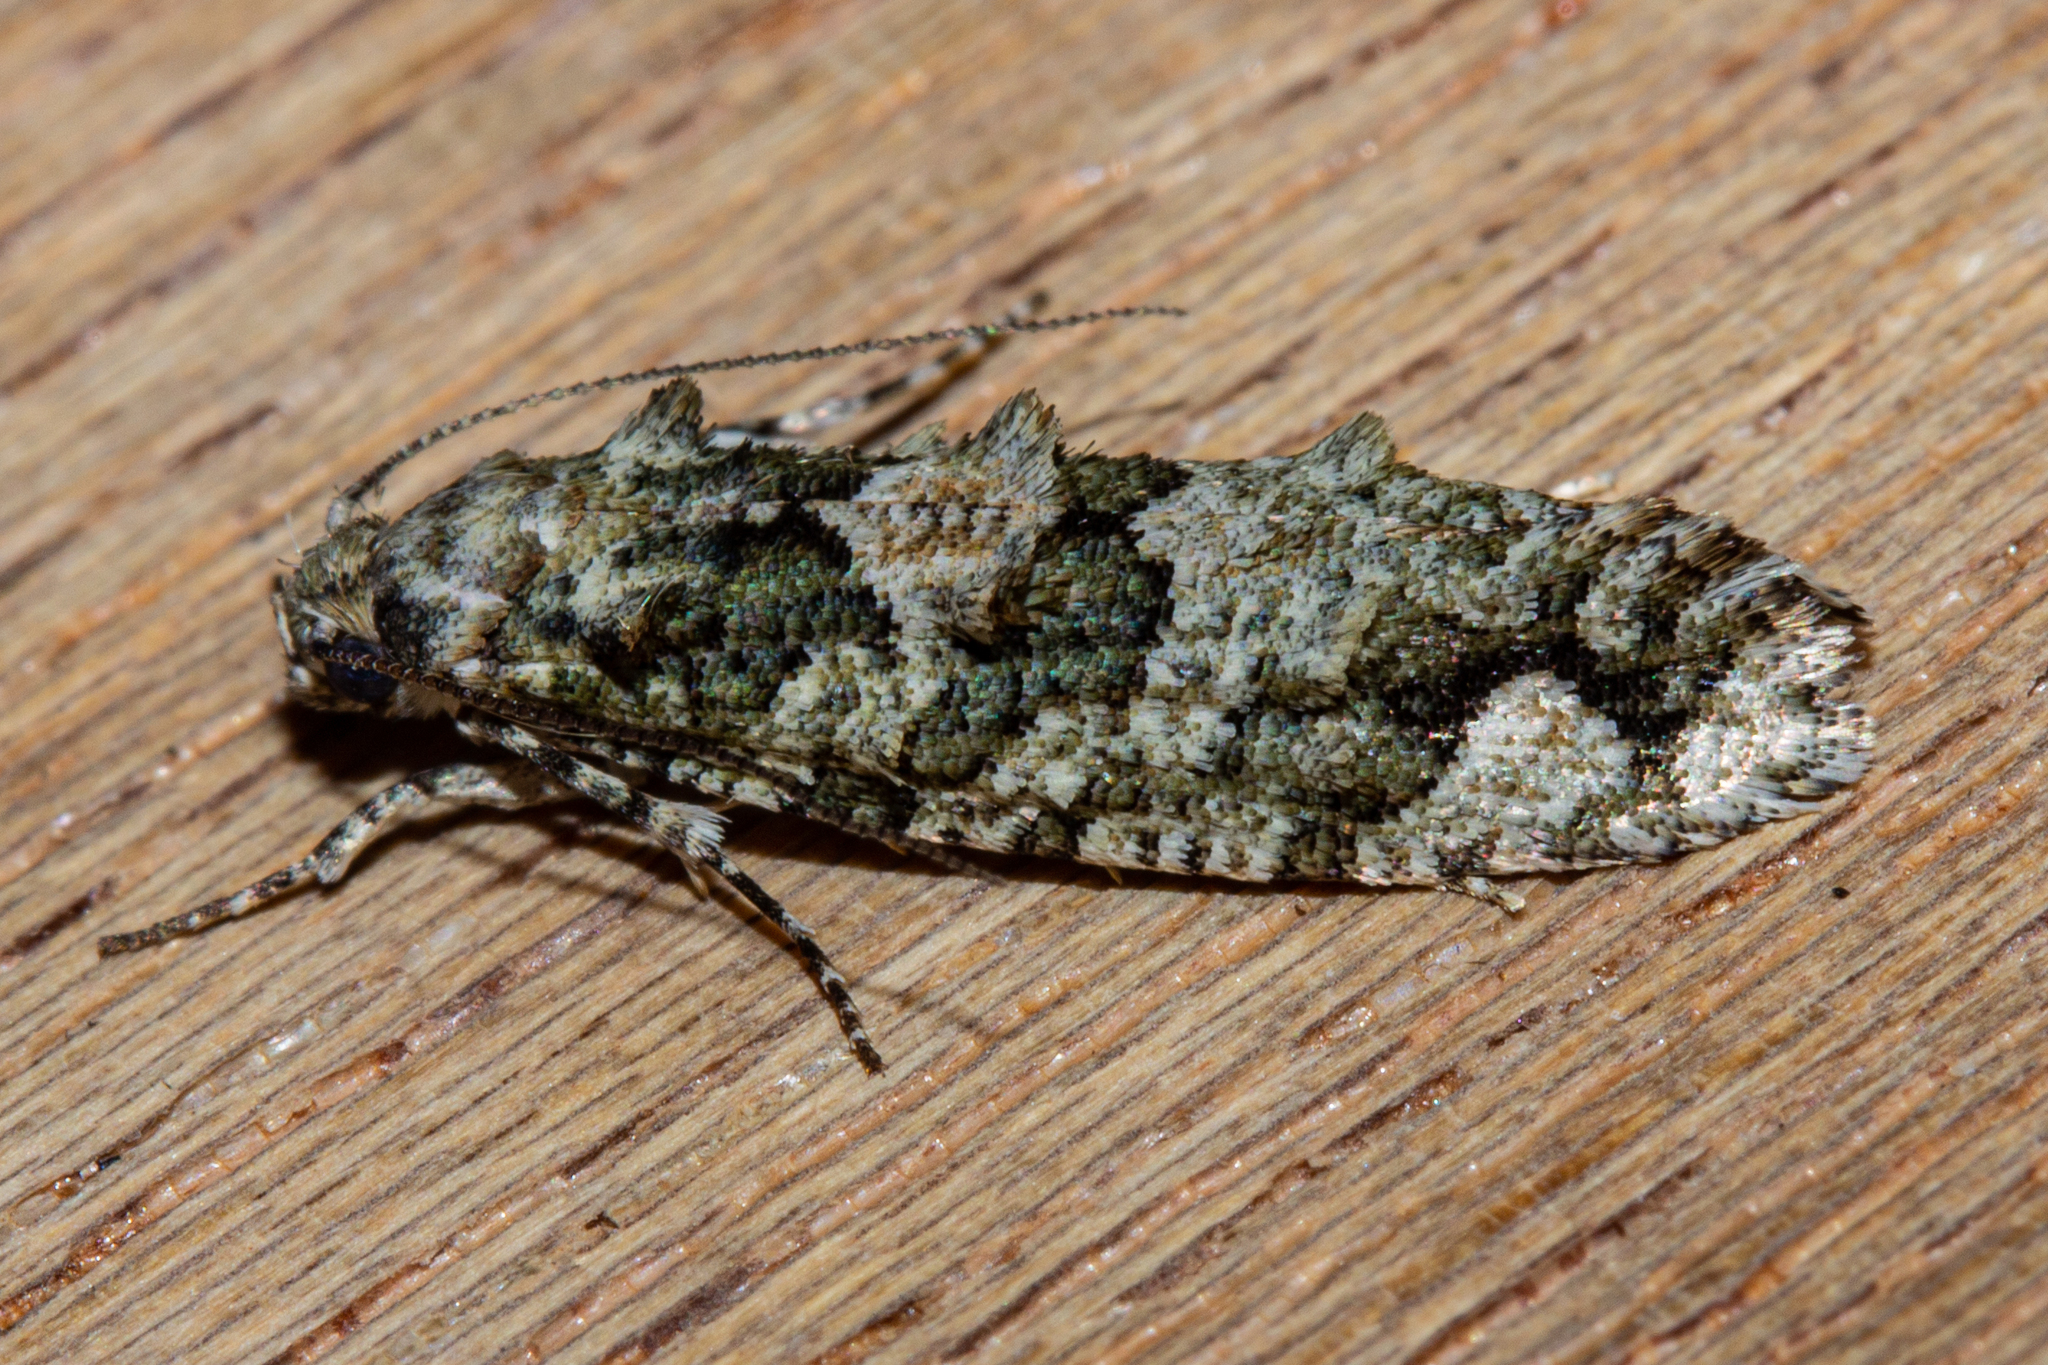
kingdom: Animalia
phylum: Arthropoda
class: Insecta
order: Lepidoptera
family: Tineidae
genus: Lysiphragma
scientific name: Lysiphragma howesii
